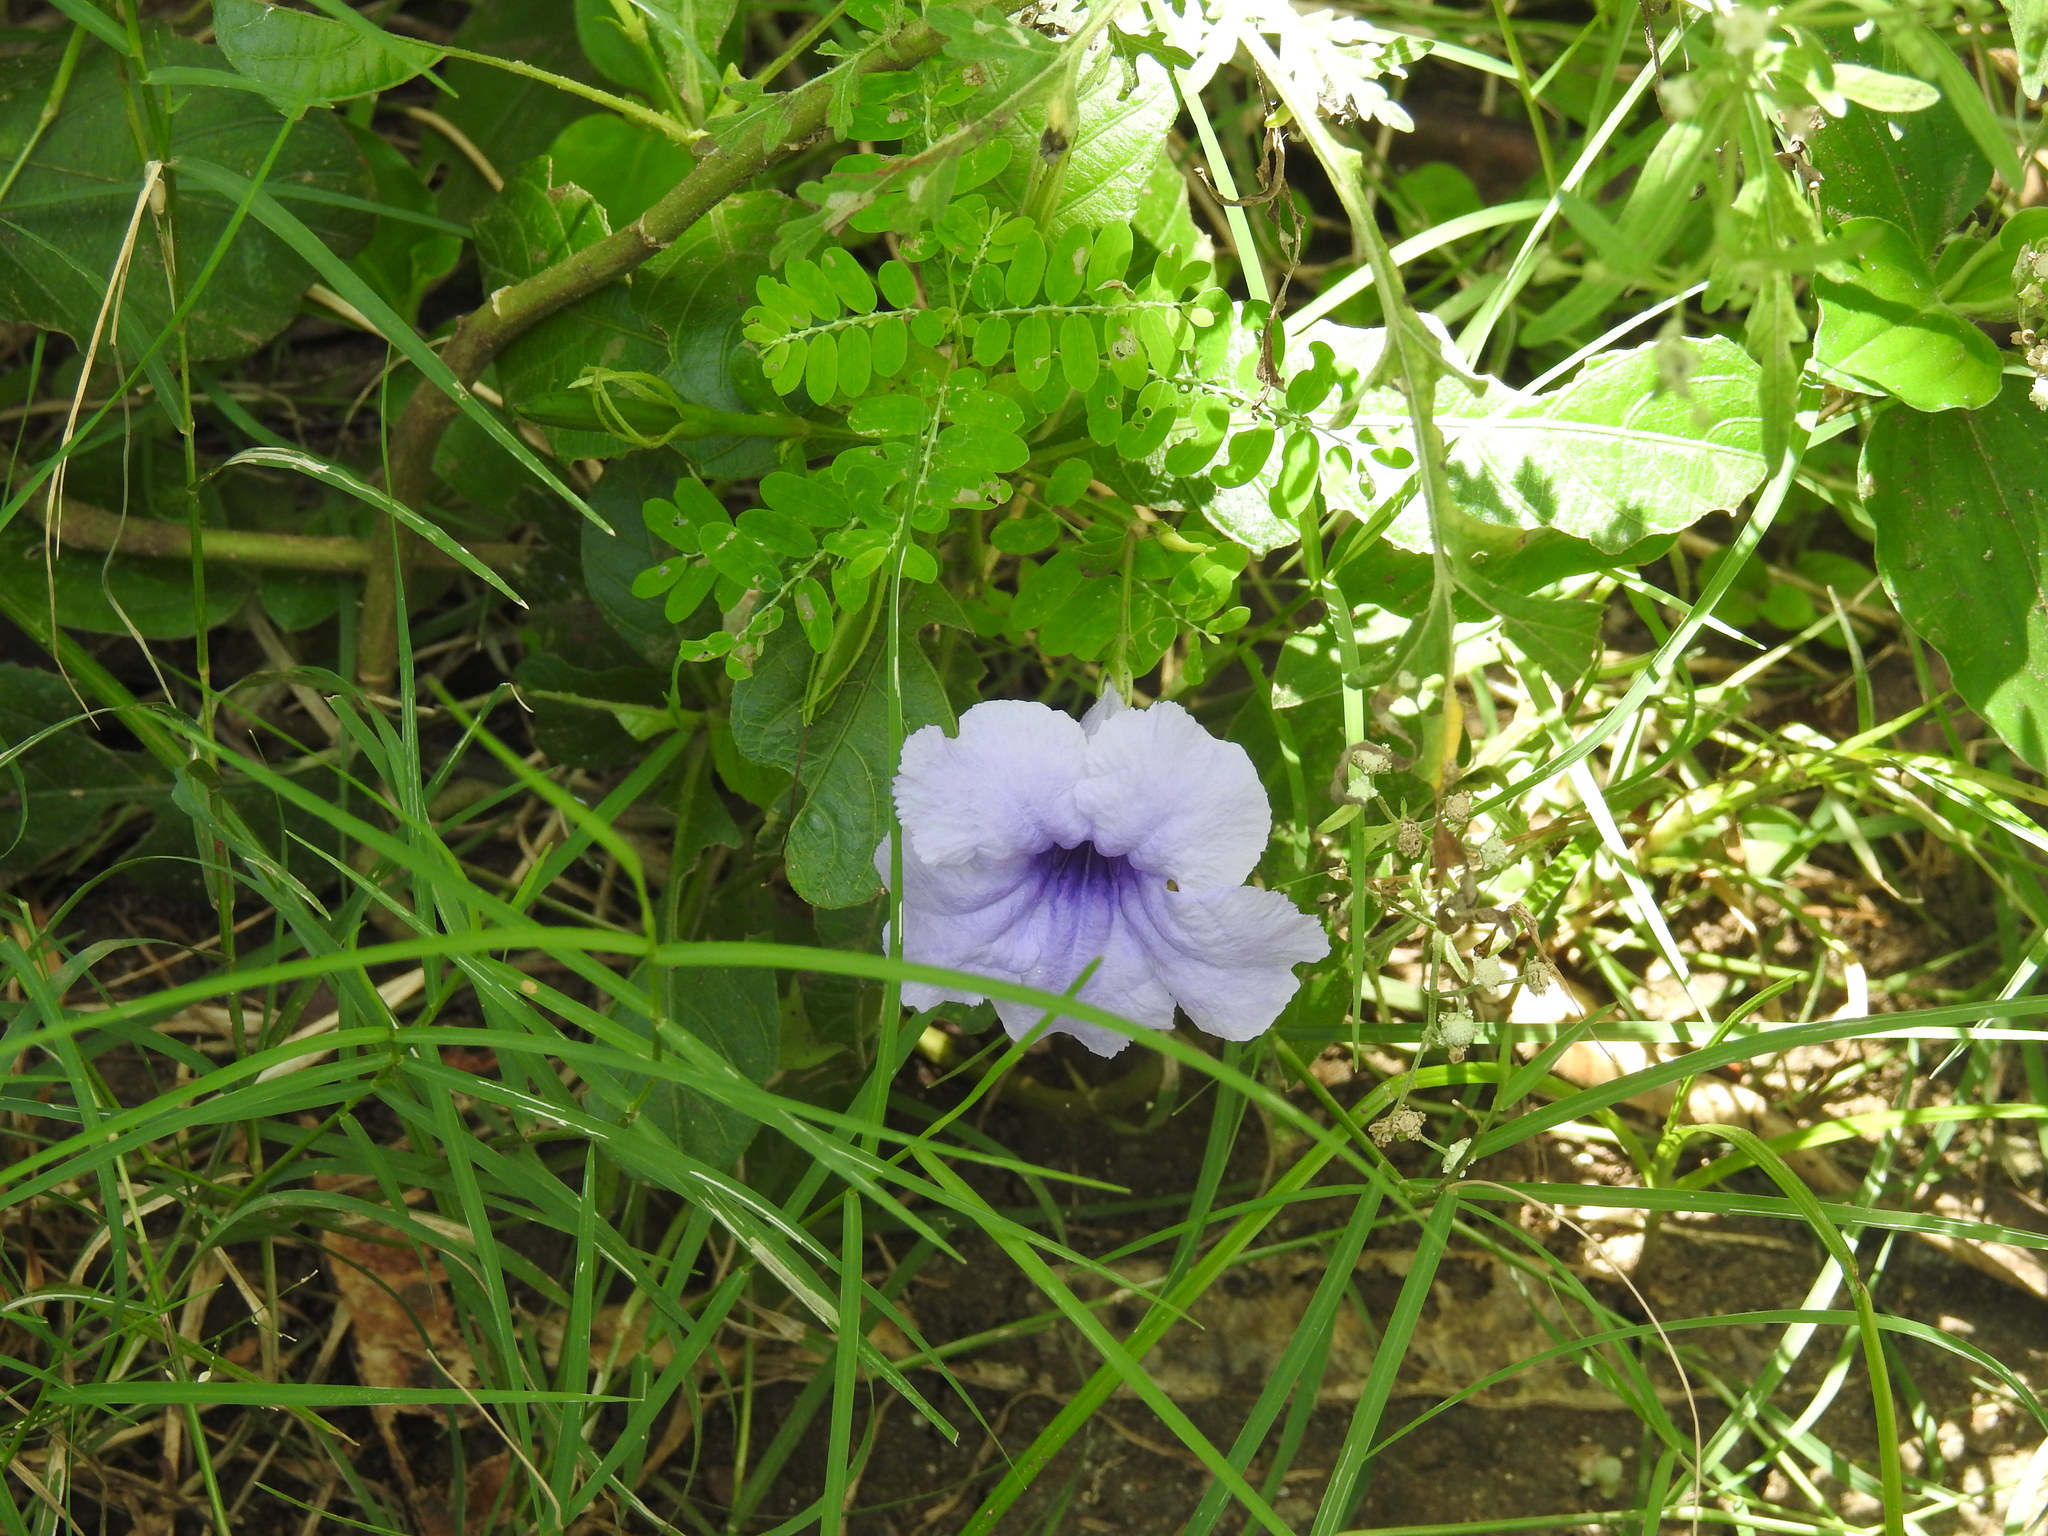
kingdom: Plantae
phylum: Tracheophyta
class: Magnoliopsida
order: Lamiales
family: Acanthaceae
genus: Ruellia
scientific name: Ruellia tuberosa
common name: Devil's bit
